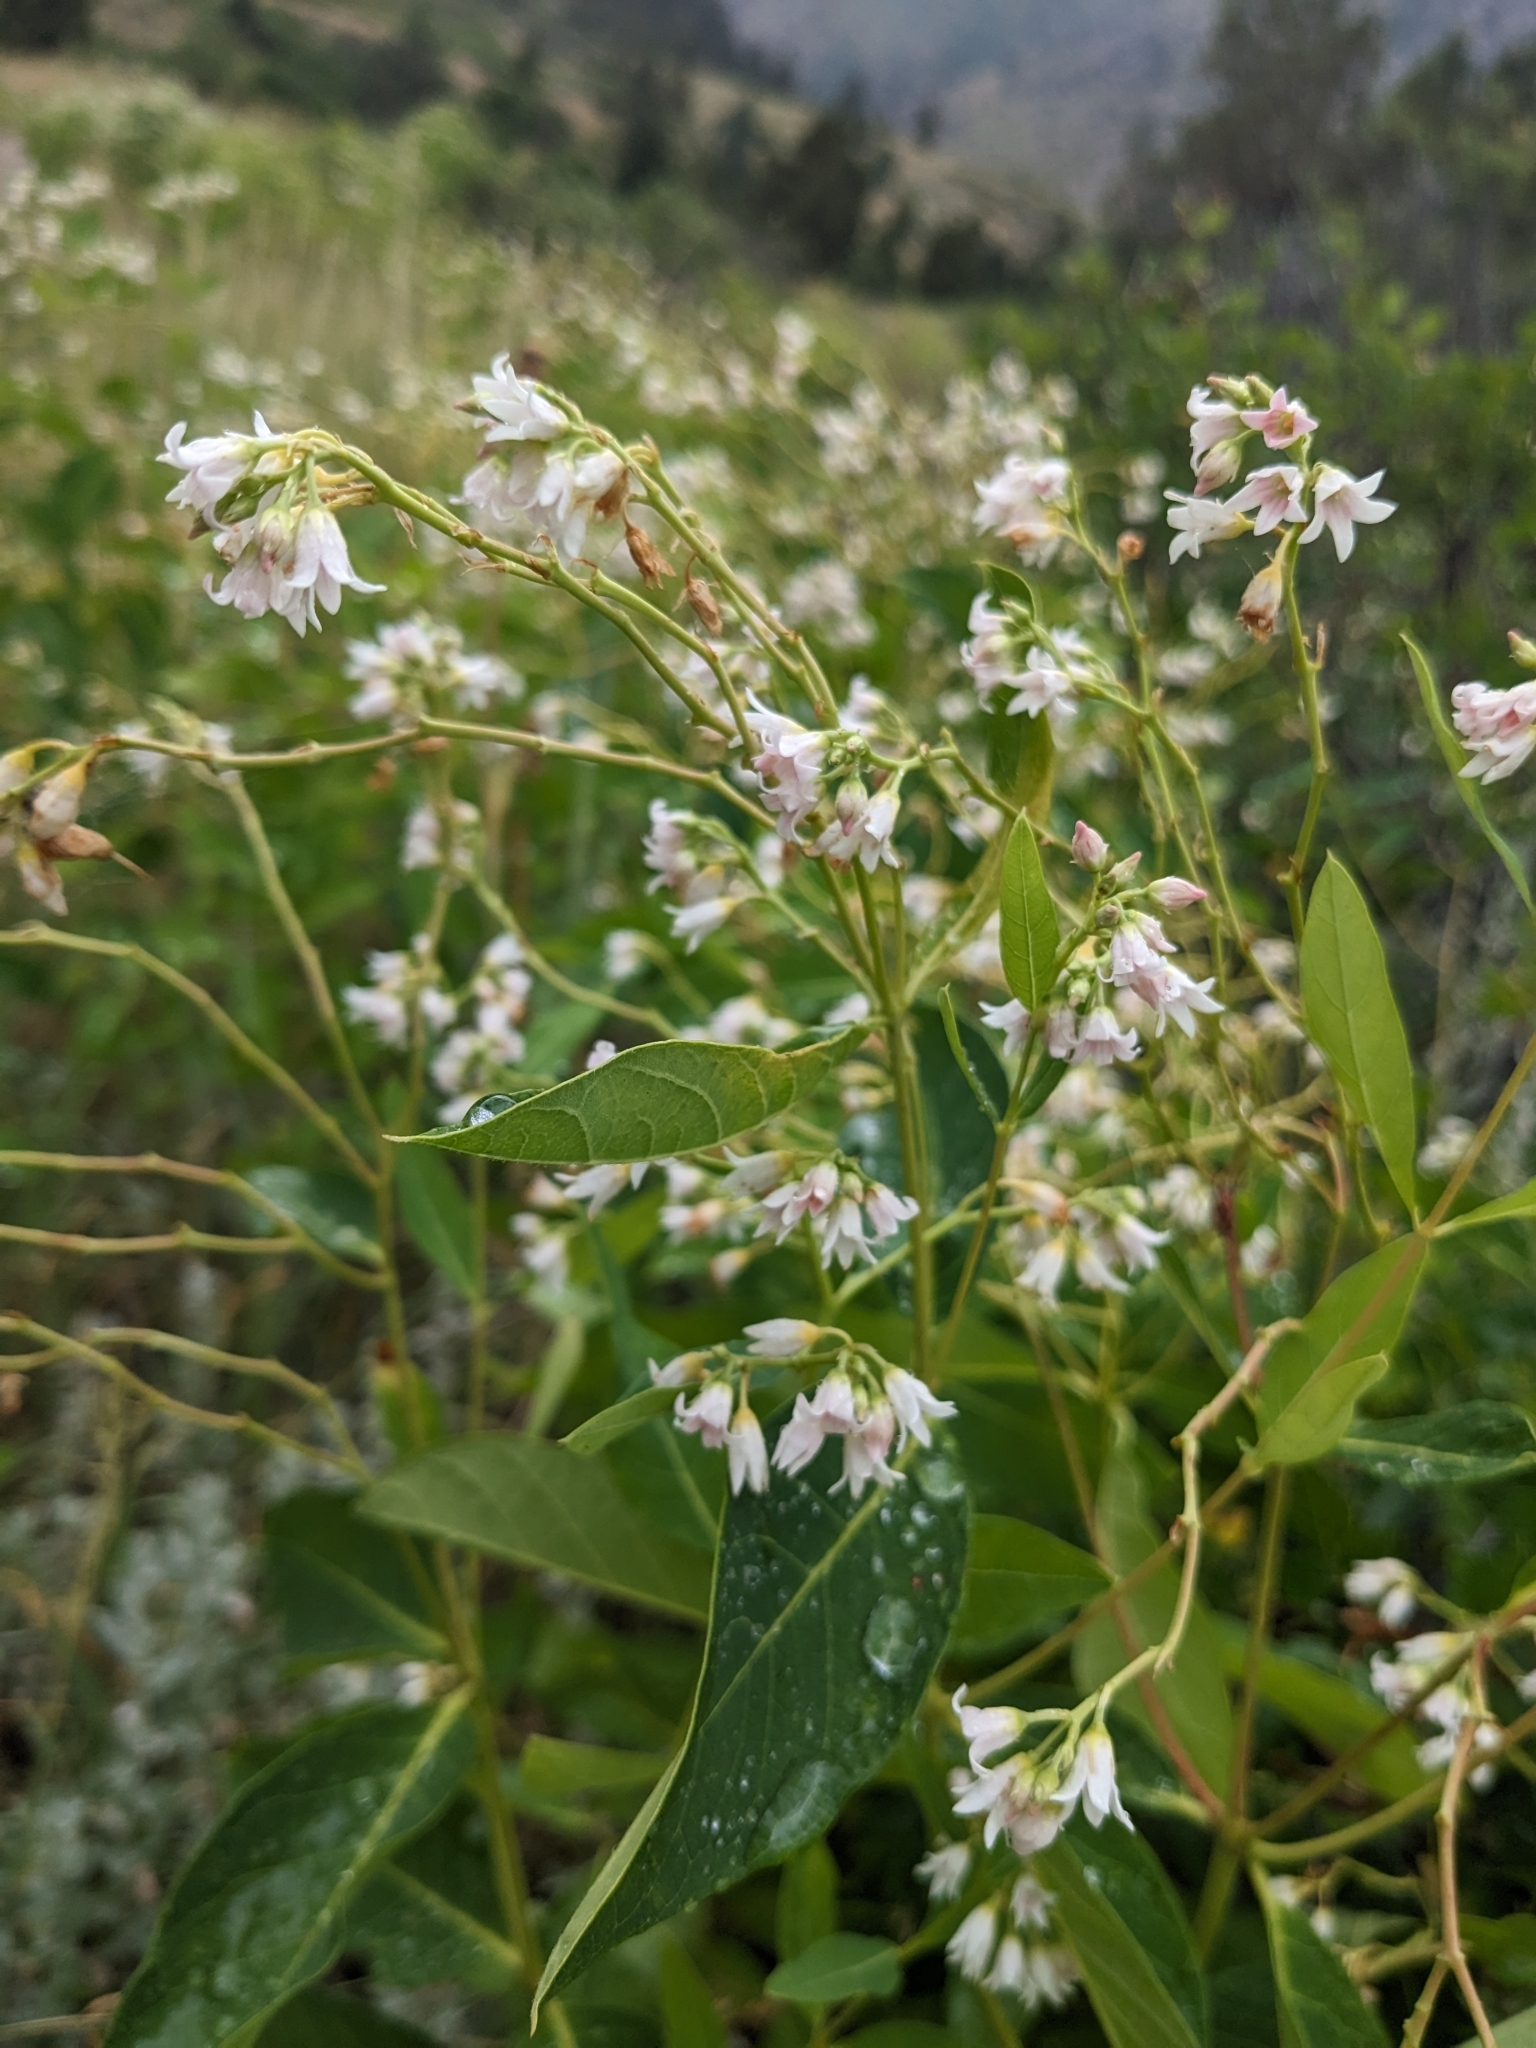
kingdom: Plantae
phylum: Tracheophyta
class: Magnoliopsida
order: Gentianales
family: Apocynaceae
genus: Apocynum
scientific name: Apocynum androsaemifolium
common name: Spreading dogbane
